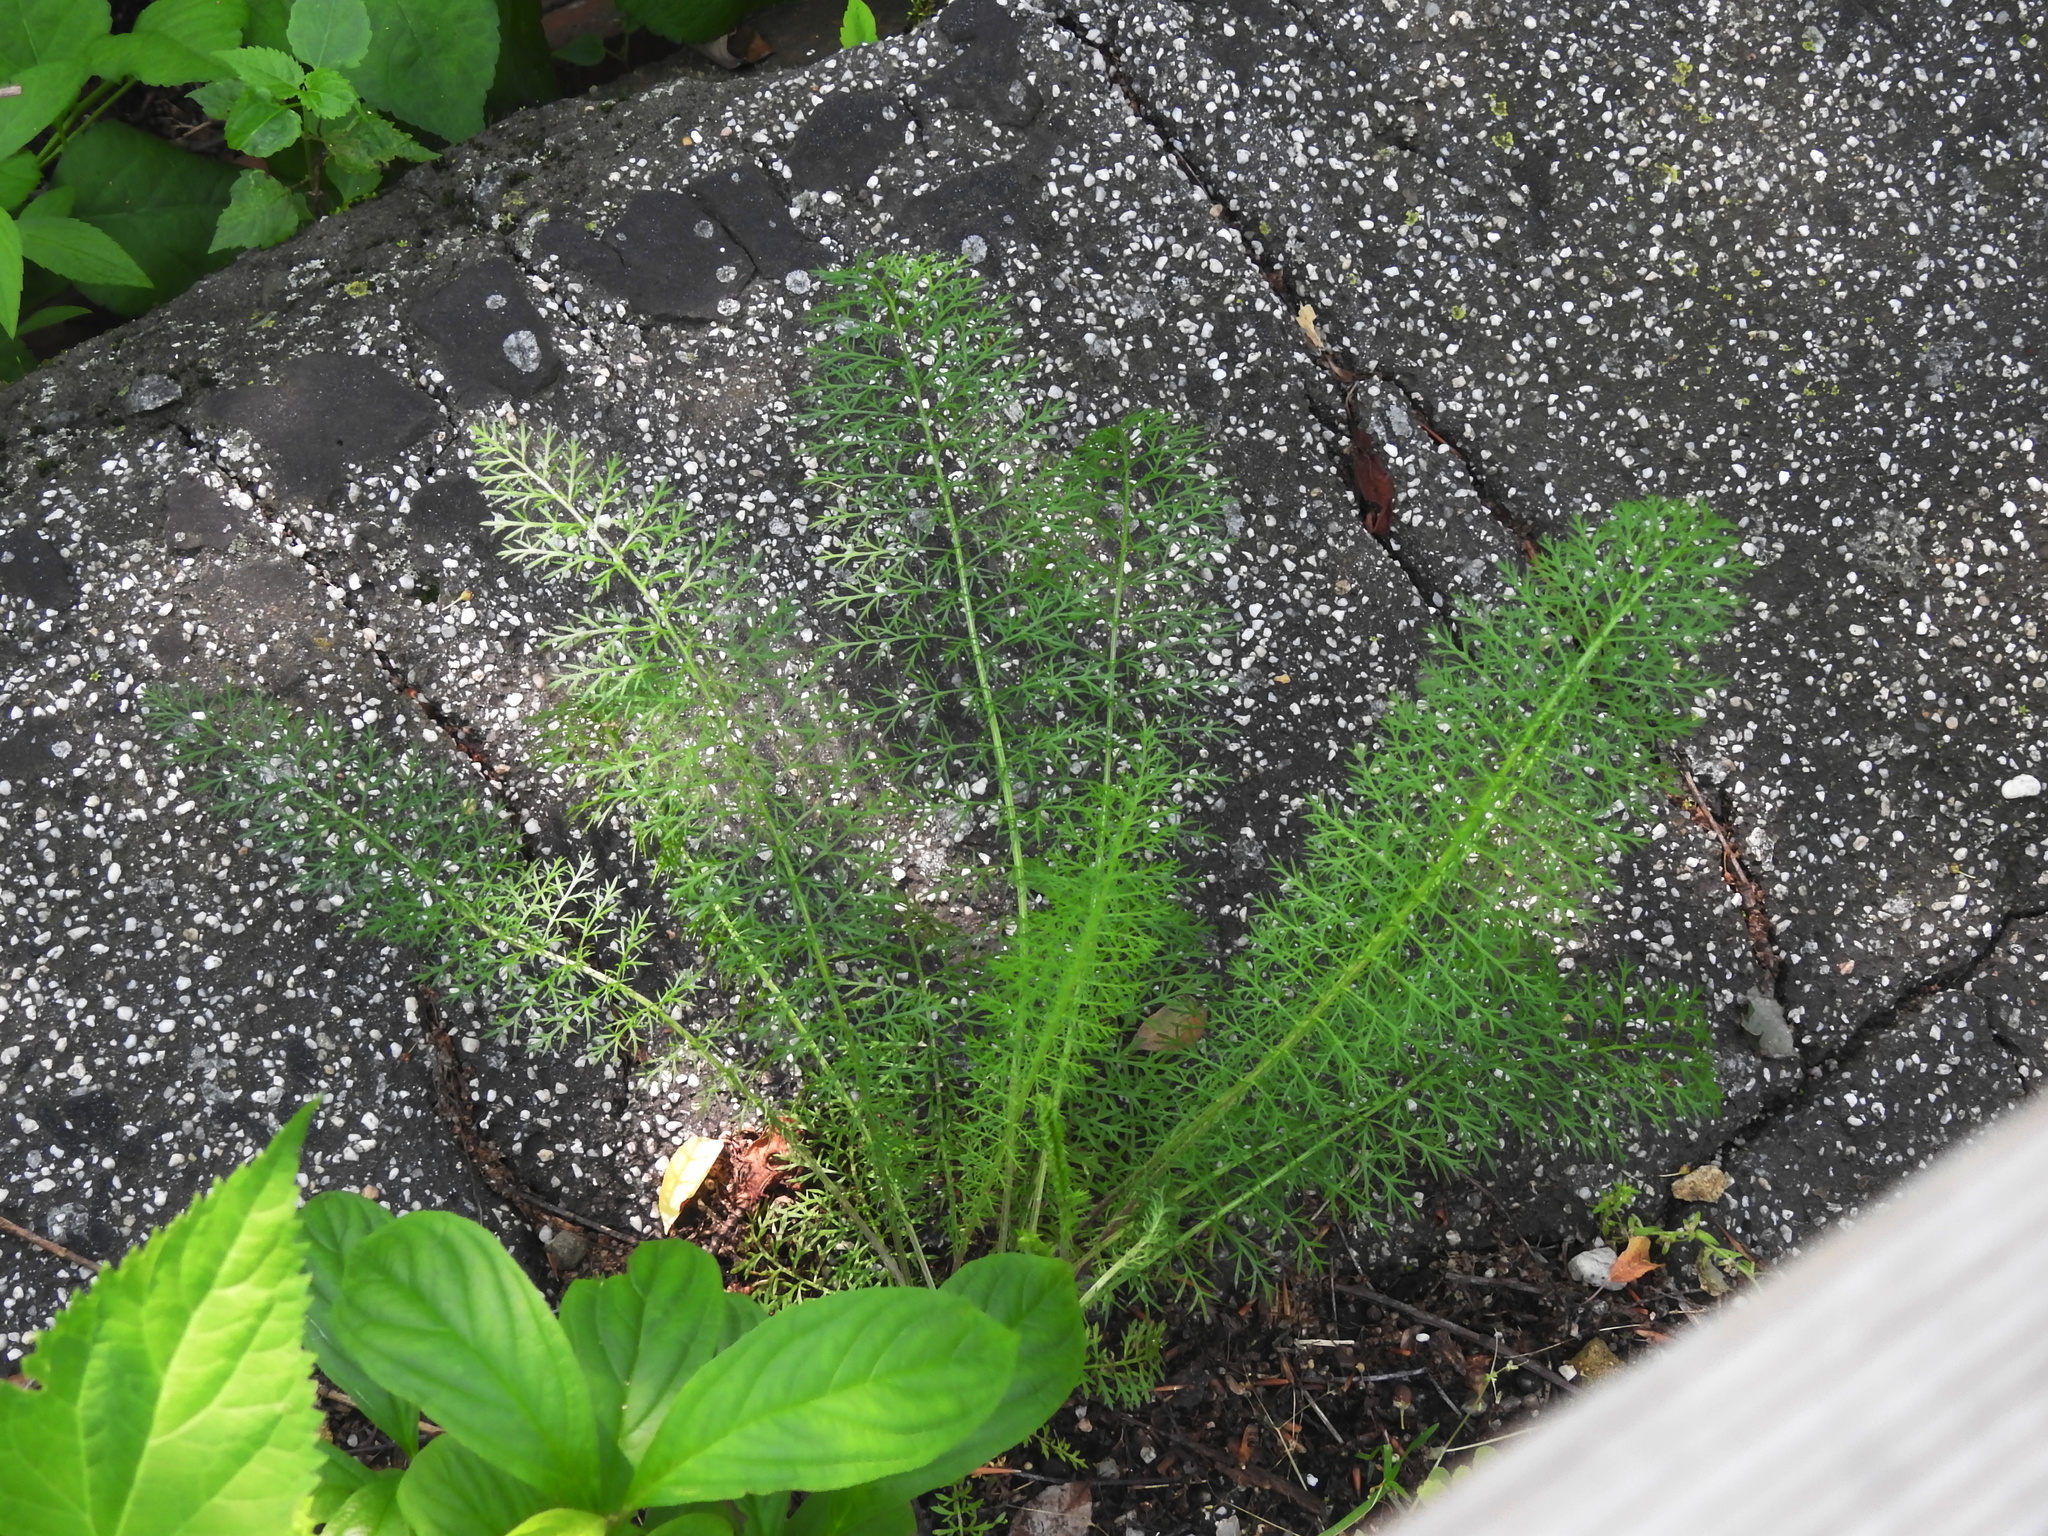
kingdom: Plantae
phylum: Tracheophyta
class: Magnoliopsida
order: Asterales
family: Asteraceae
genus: Achillea
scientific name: Achillea millefolium
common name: Yarrow
